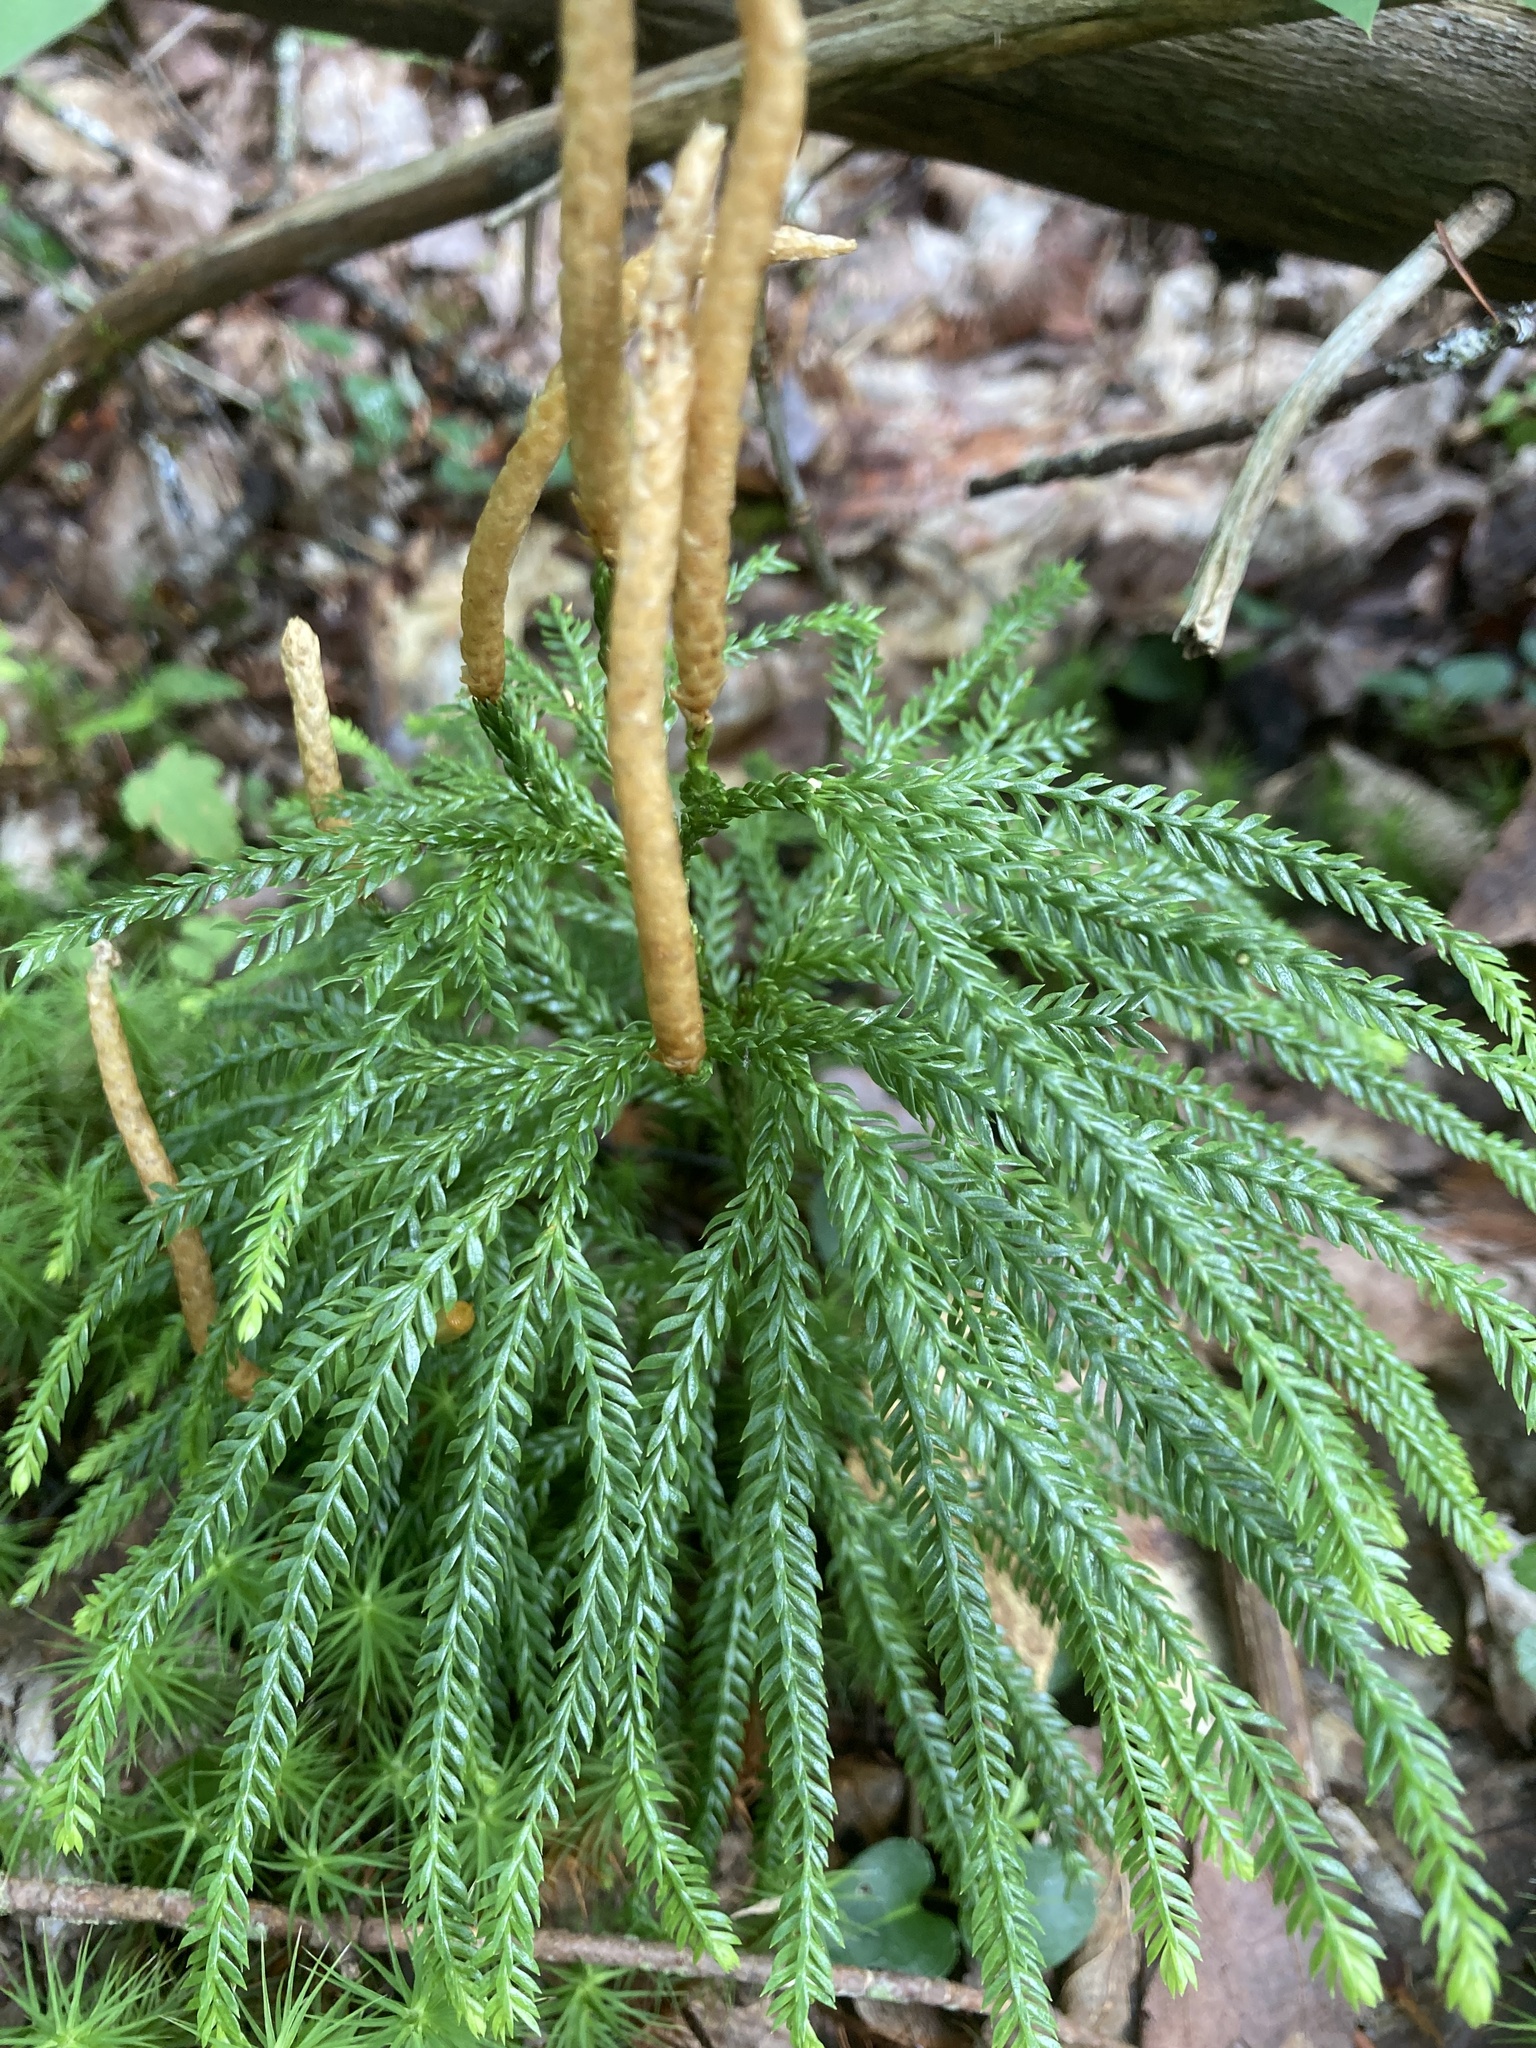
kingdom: Plantae
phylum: Tracheophyta
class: Lycopodiopsida
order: Lycopodiales
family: Lycopodiaceae
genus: Dendrolycopodium
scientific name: Dendrolycopodium obscurum
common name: Common ground-pine
